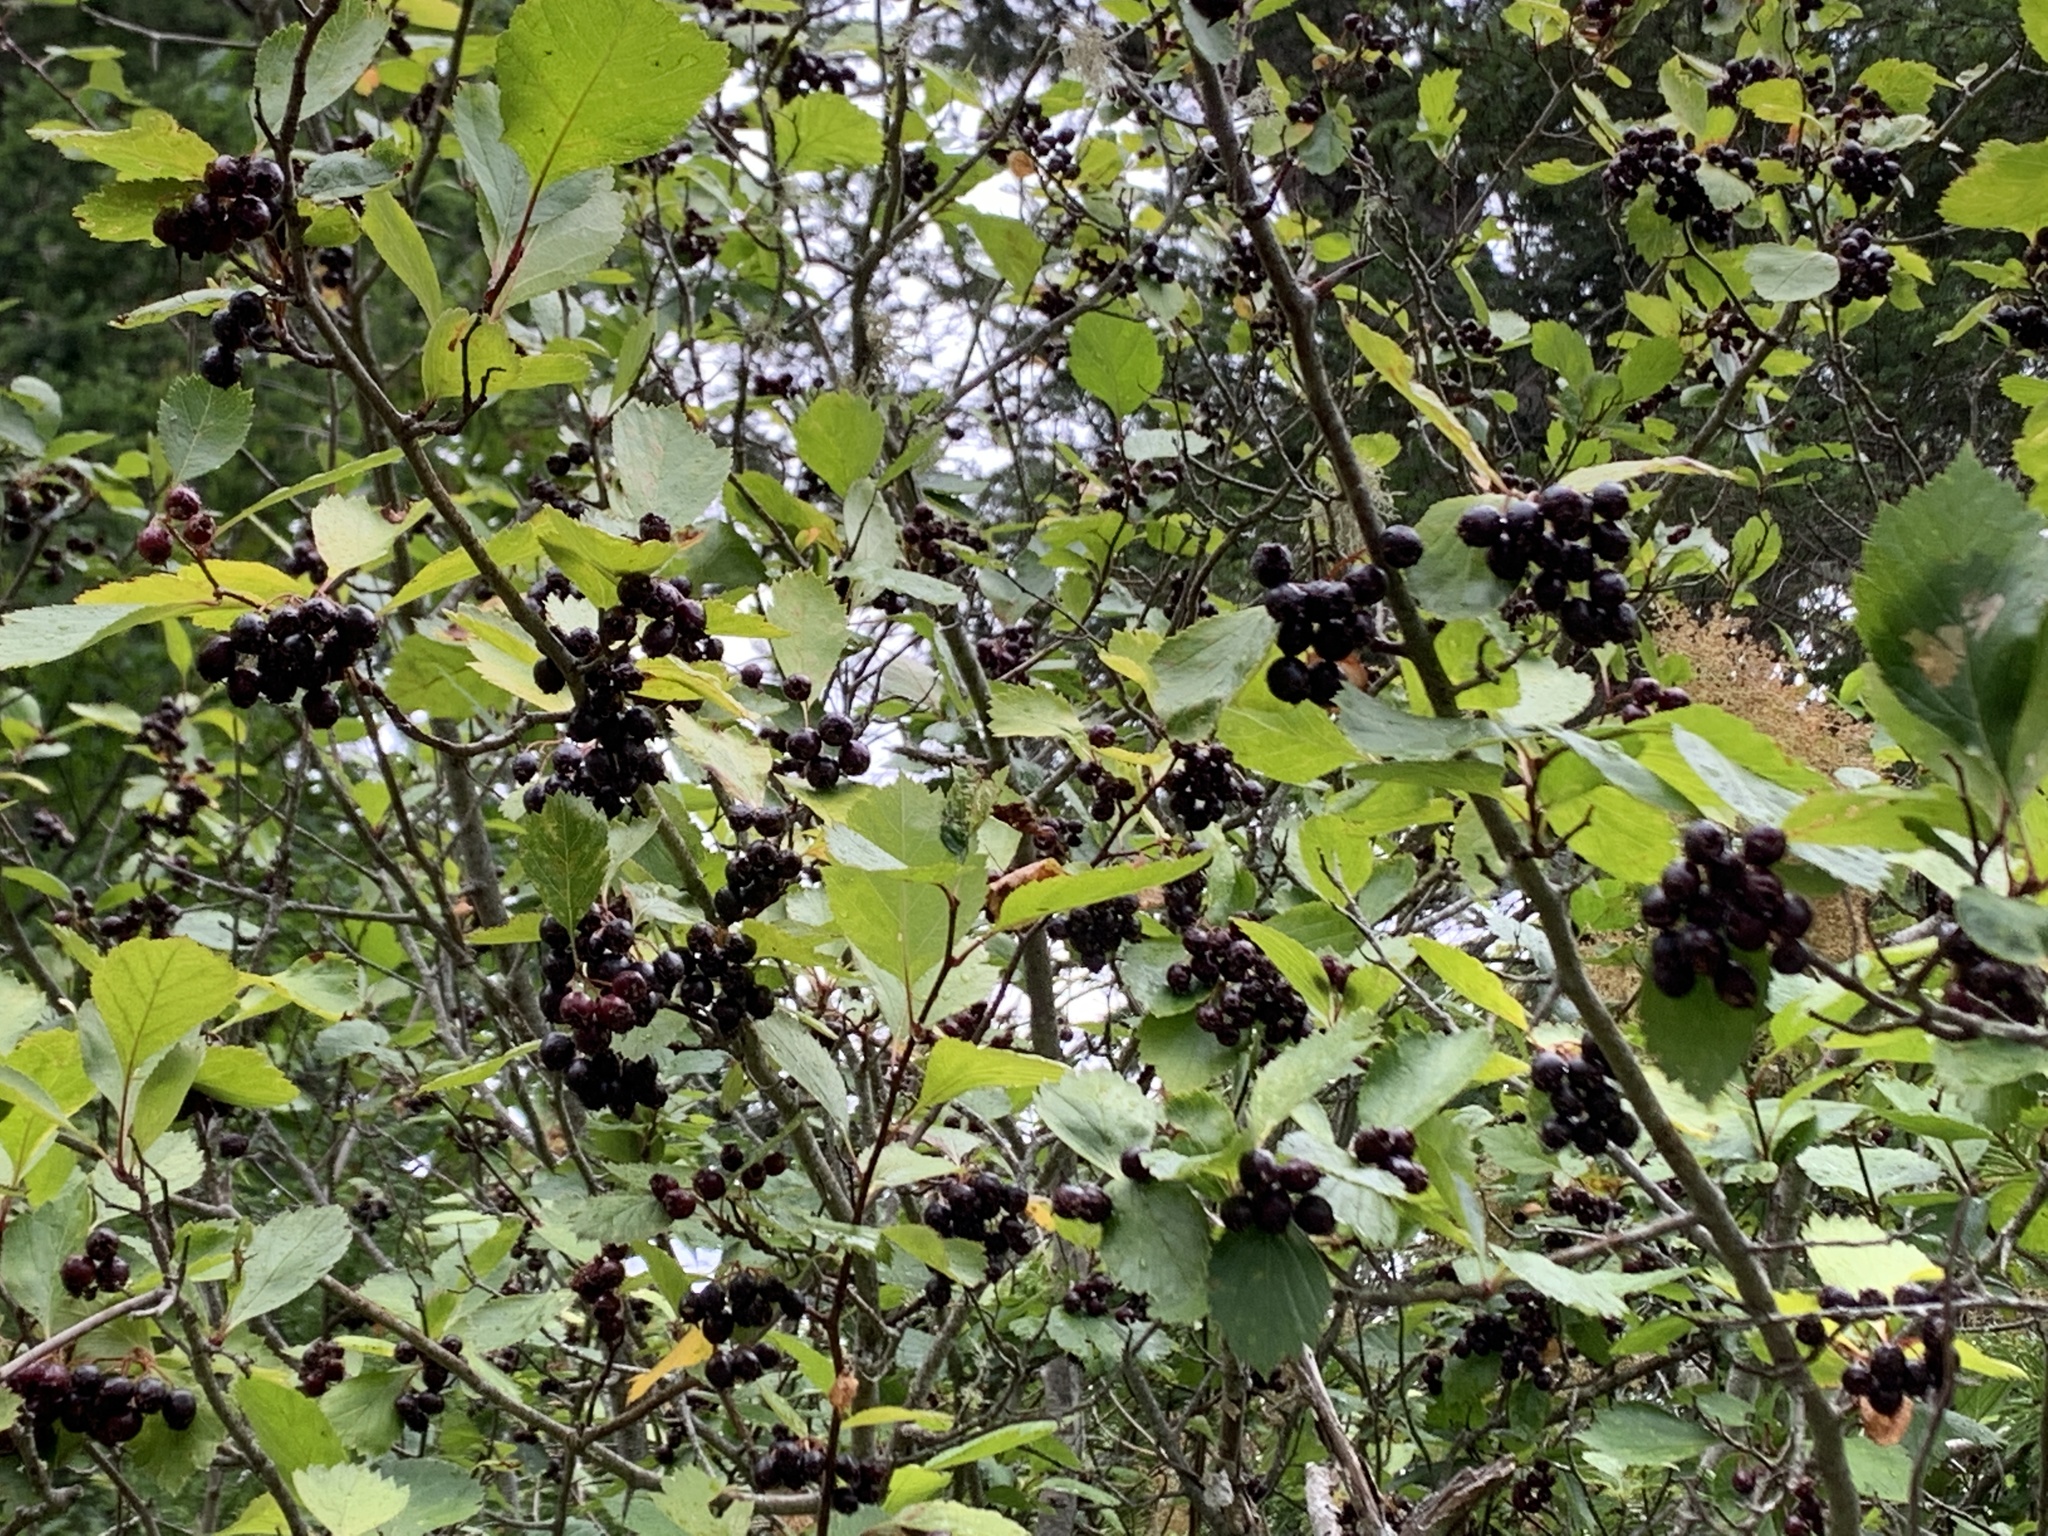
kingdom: Plantae
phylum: Tracheophyta
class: Magnoliopsida
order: Rosales
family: Rosaceae
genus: Crataegus
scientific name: Crataegus douglasii
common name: Black hawthorn
